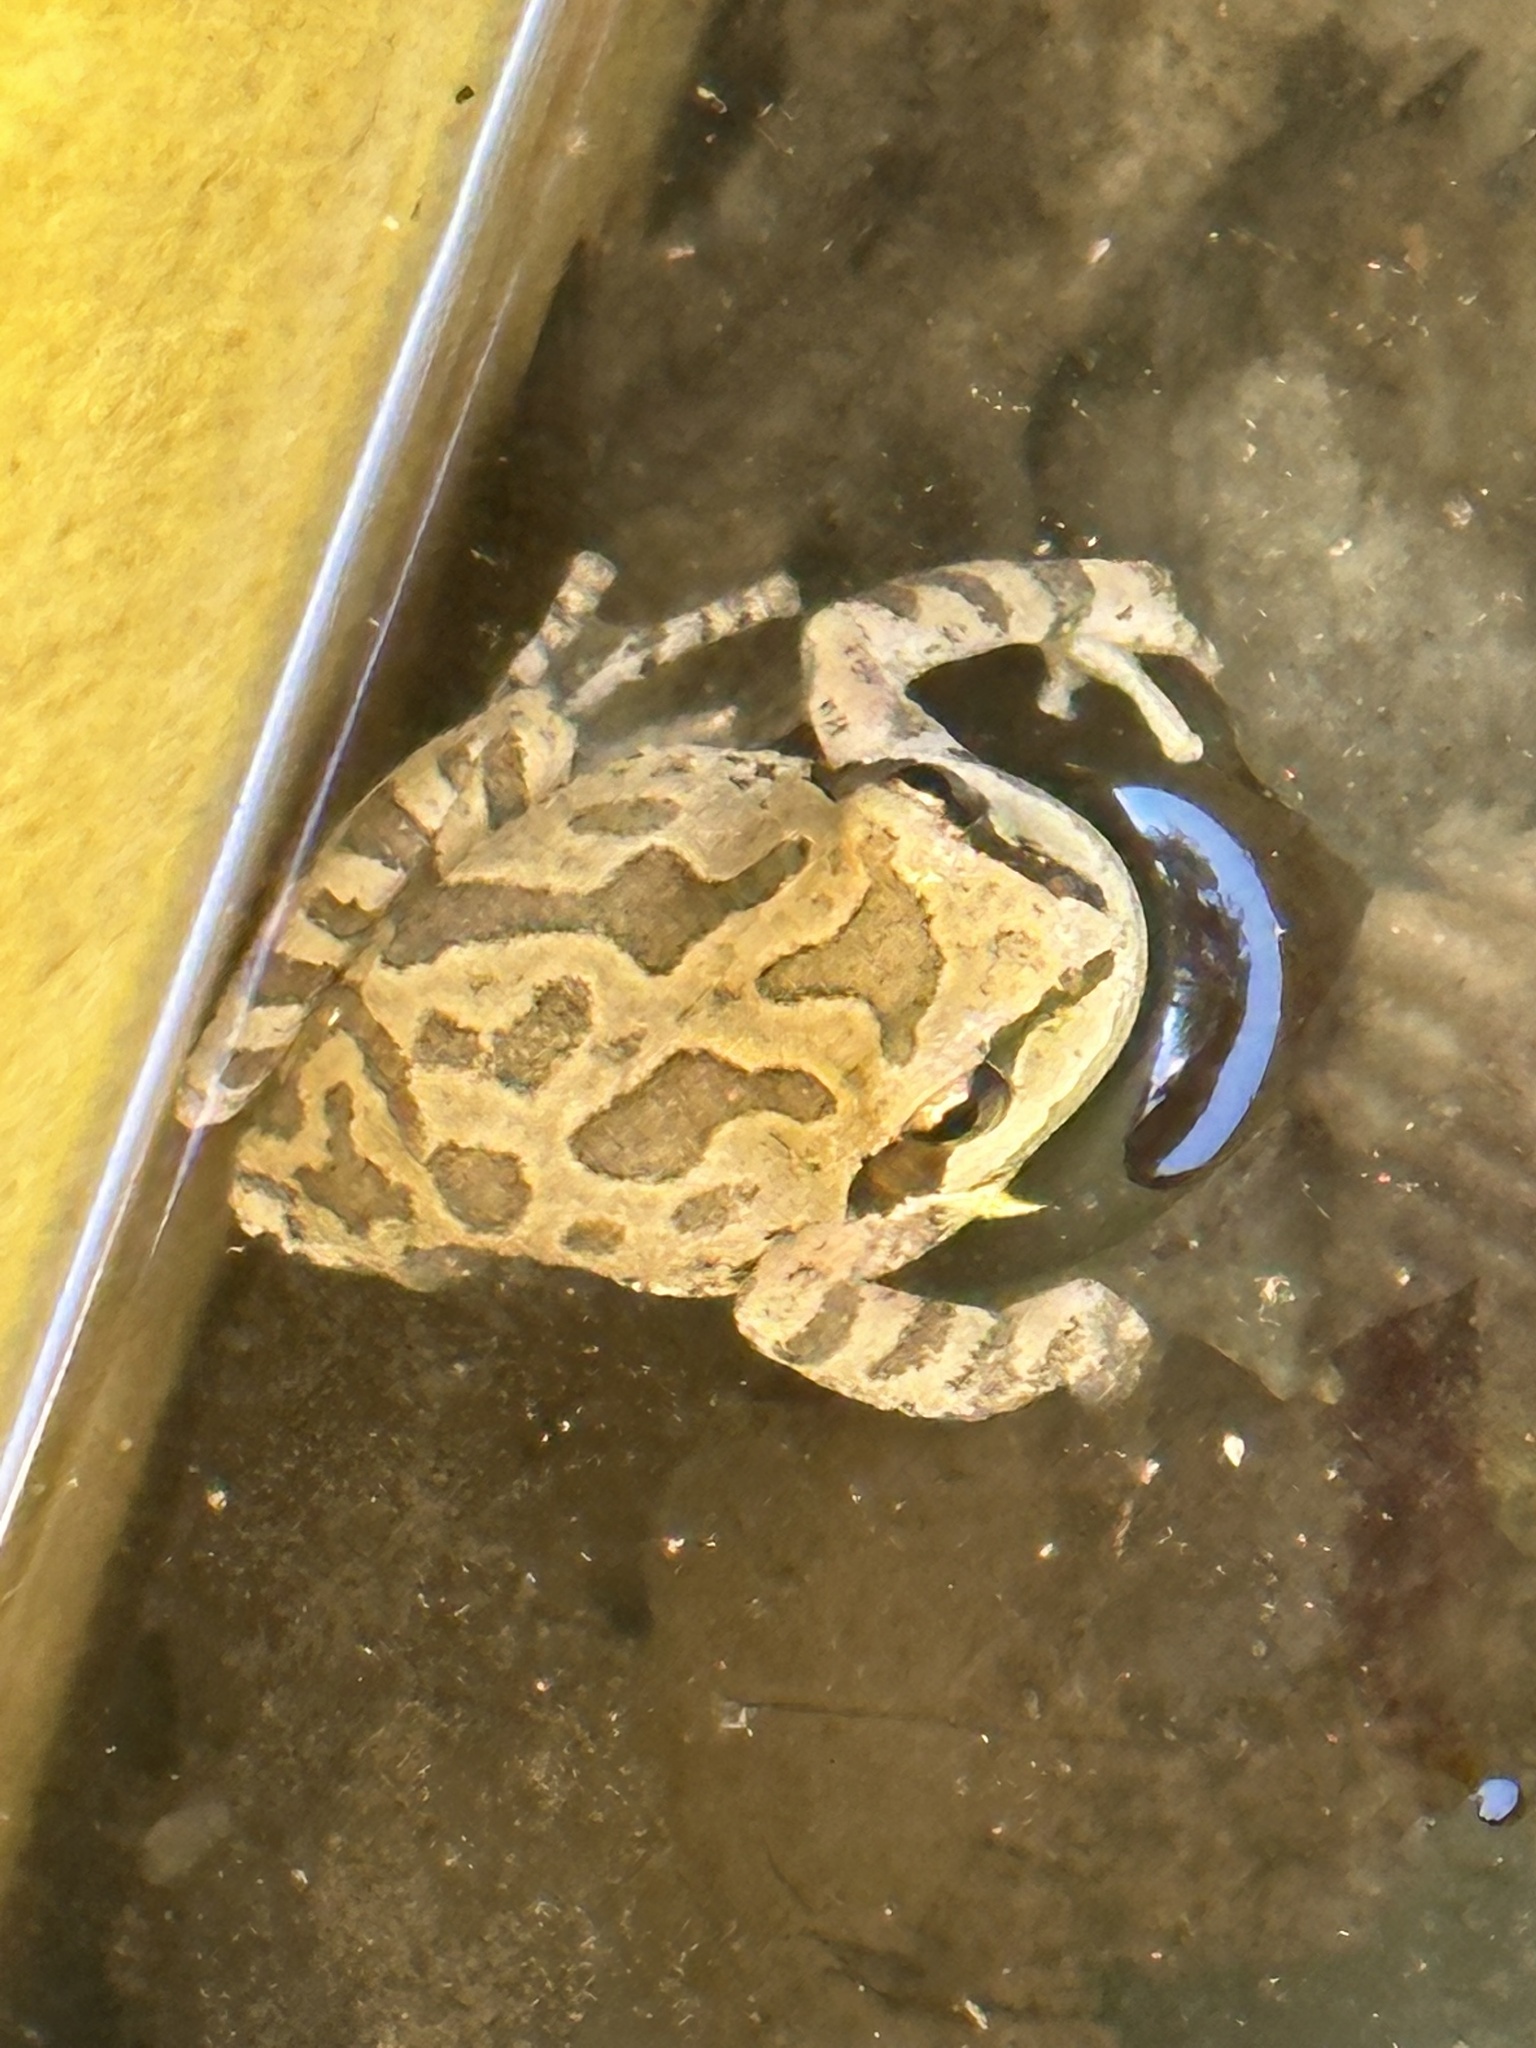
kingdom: Animalia
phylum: Chordata
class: Amphibia
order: Anura
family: Hylidae
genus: Pseudacris
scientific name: Pseudacris regilla
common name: Pacific chorus frog
